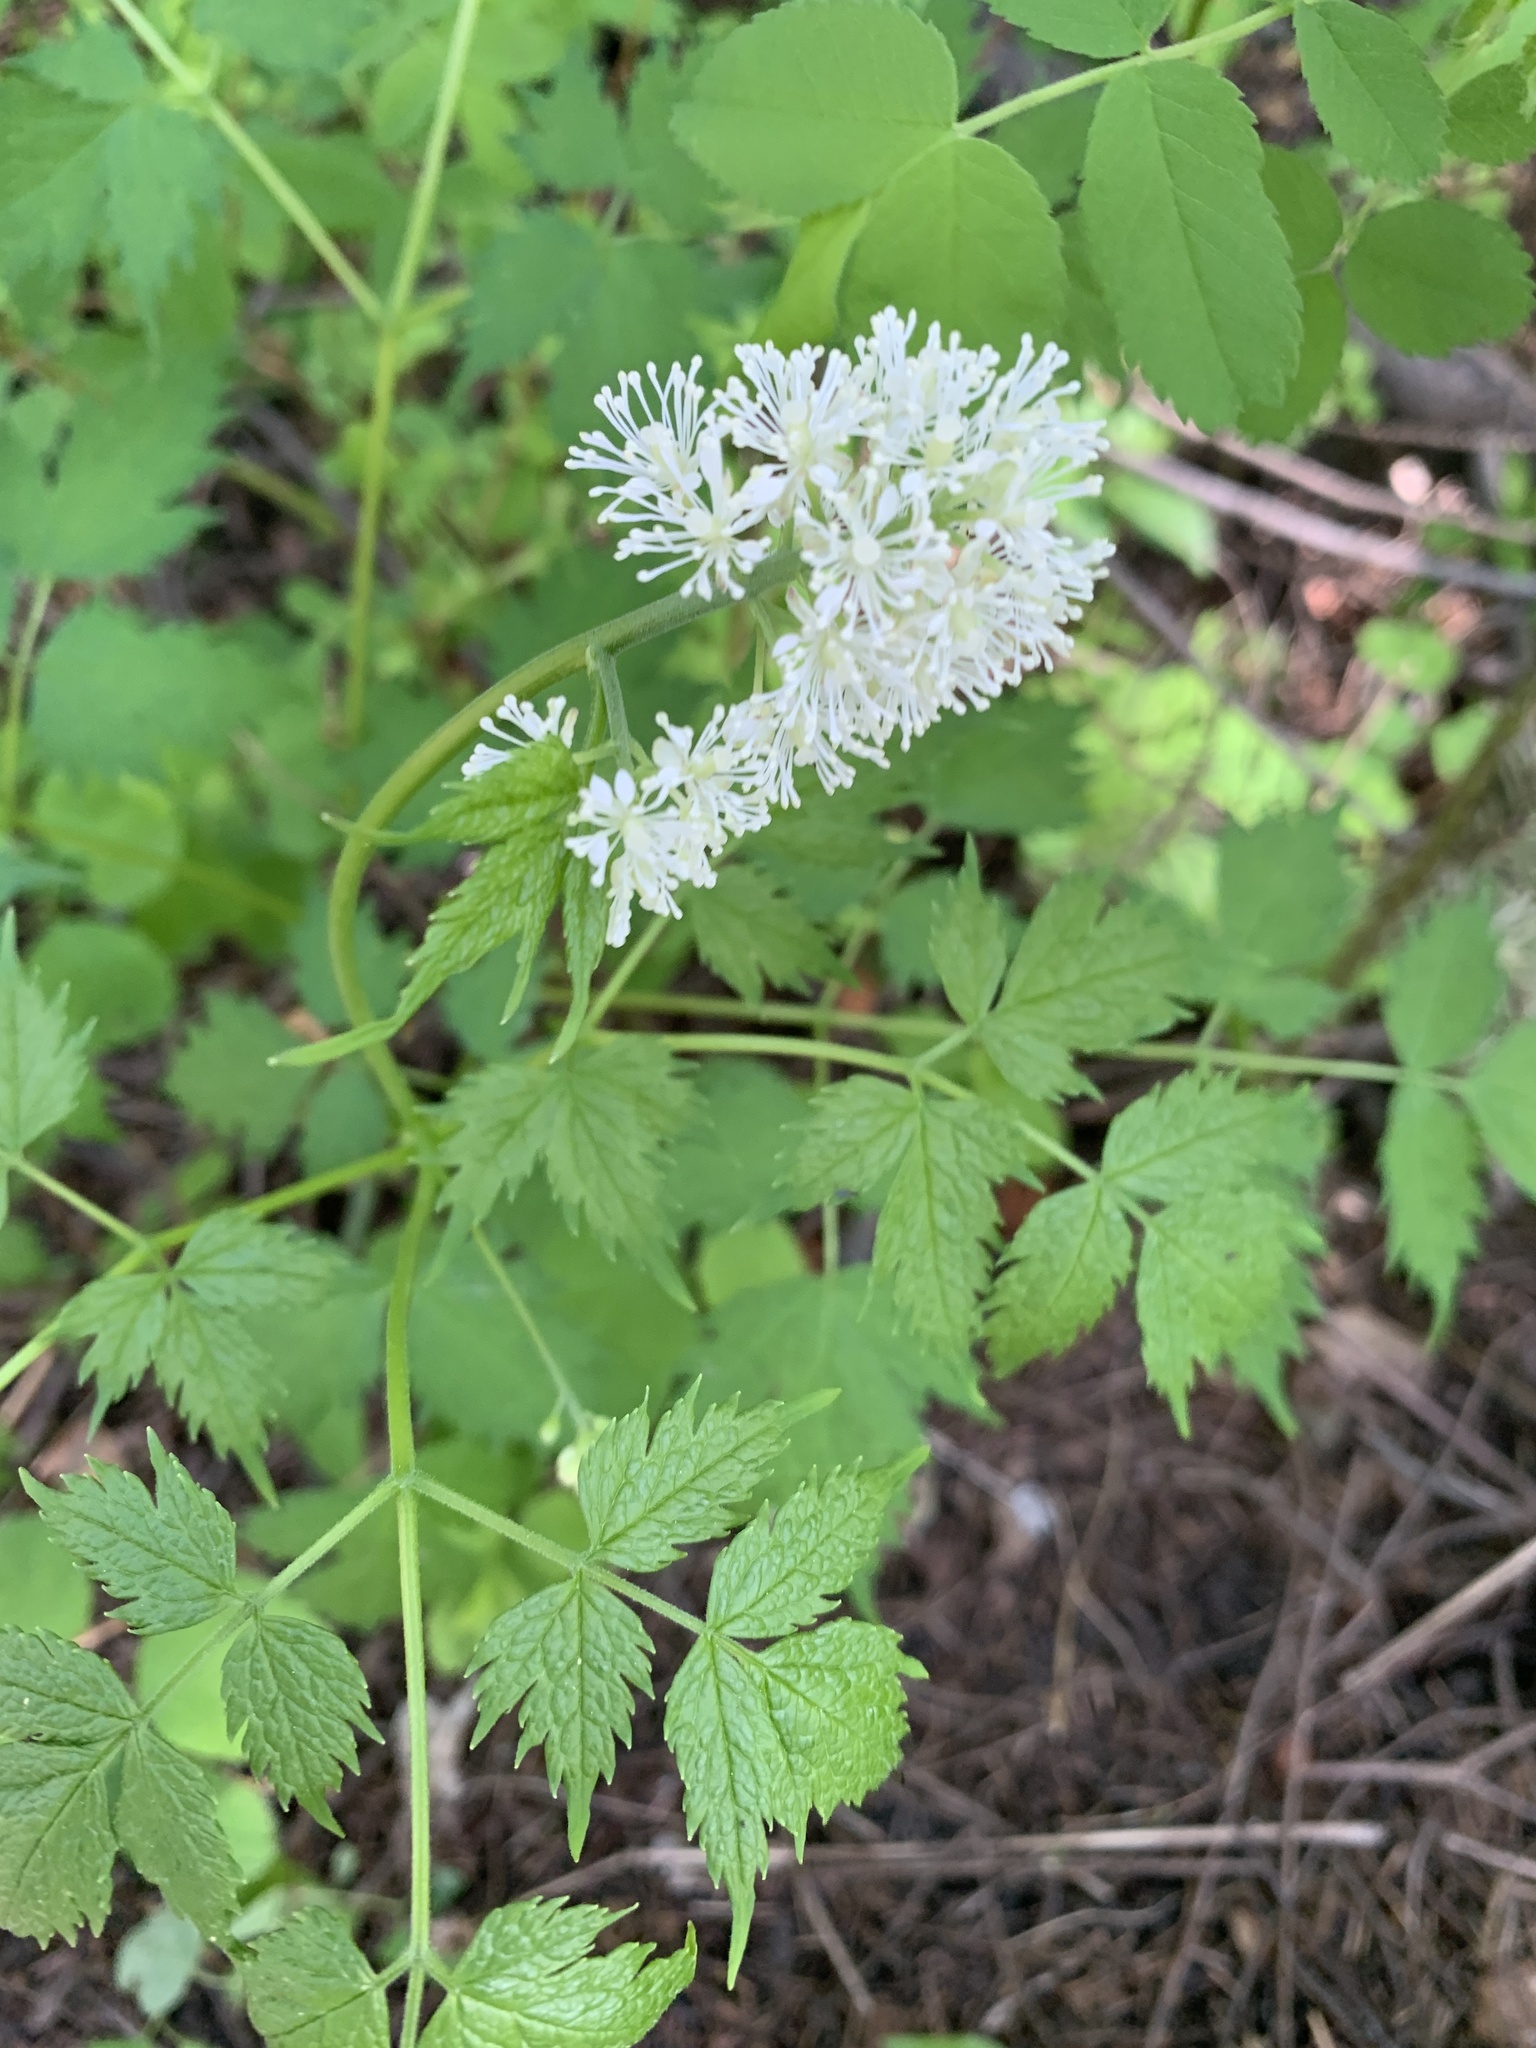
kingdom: Plantae
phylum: Tracheophyta
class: Magnoliopsida
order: Ranunculales
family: Ranunculaceae
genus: Actaea
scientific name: Actaea rubra
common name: Red baneberry
